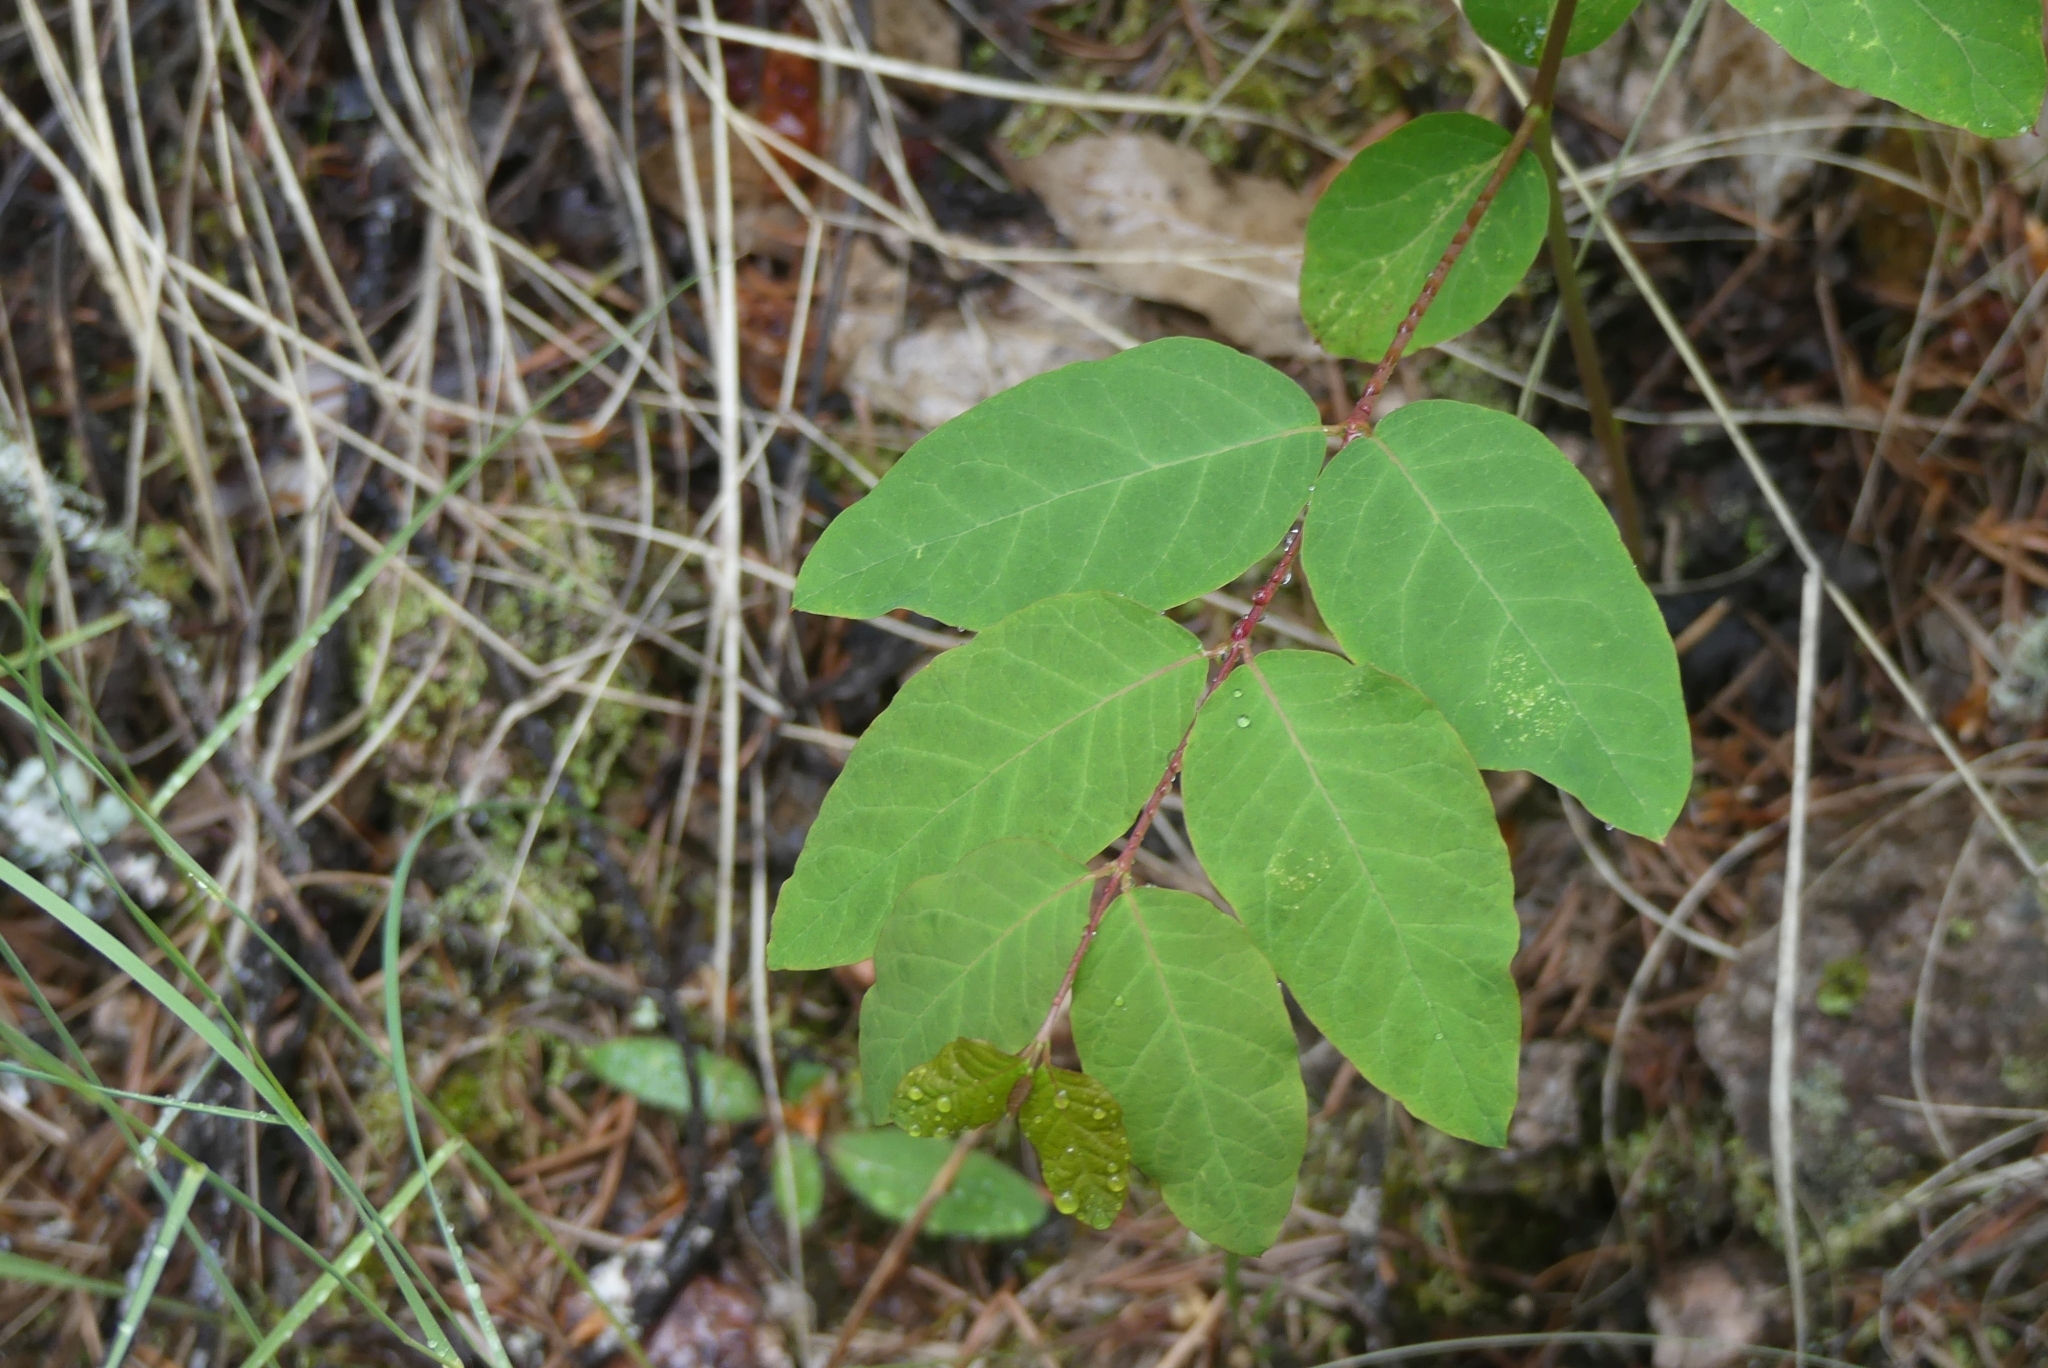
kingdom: Plantae
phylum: Tracheophyta
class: Magnoliopsida
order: Gentianales
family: Apocynaceae
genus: Apocynum
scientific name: Apocynum androsaemifolium
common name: Spreading dogbane
